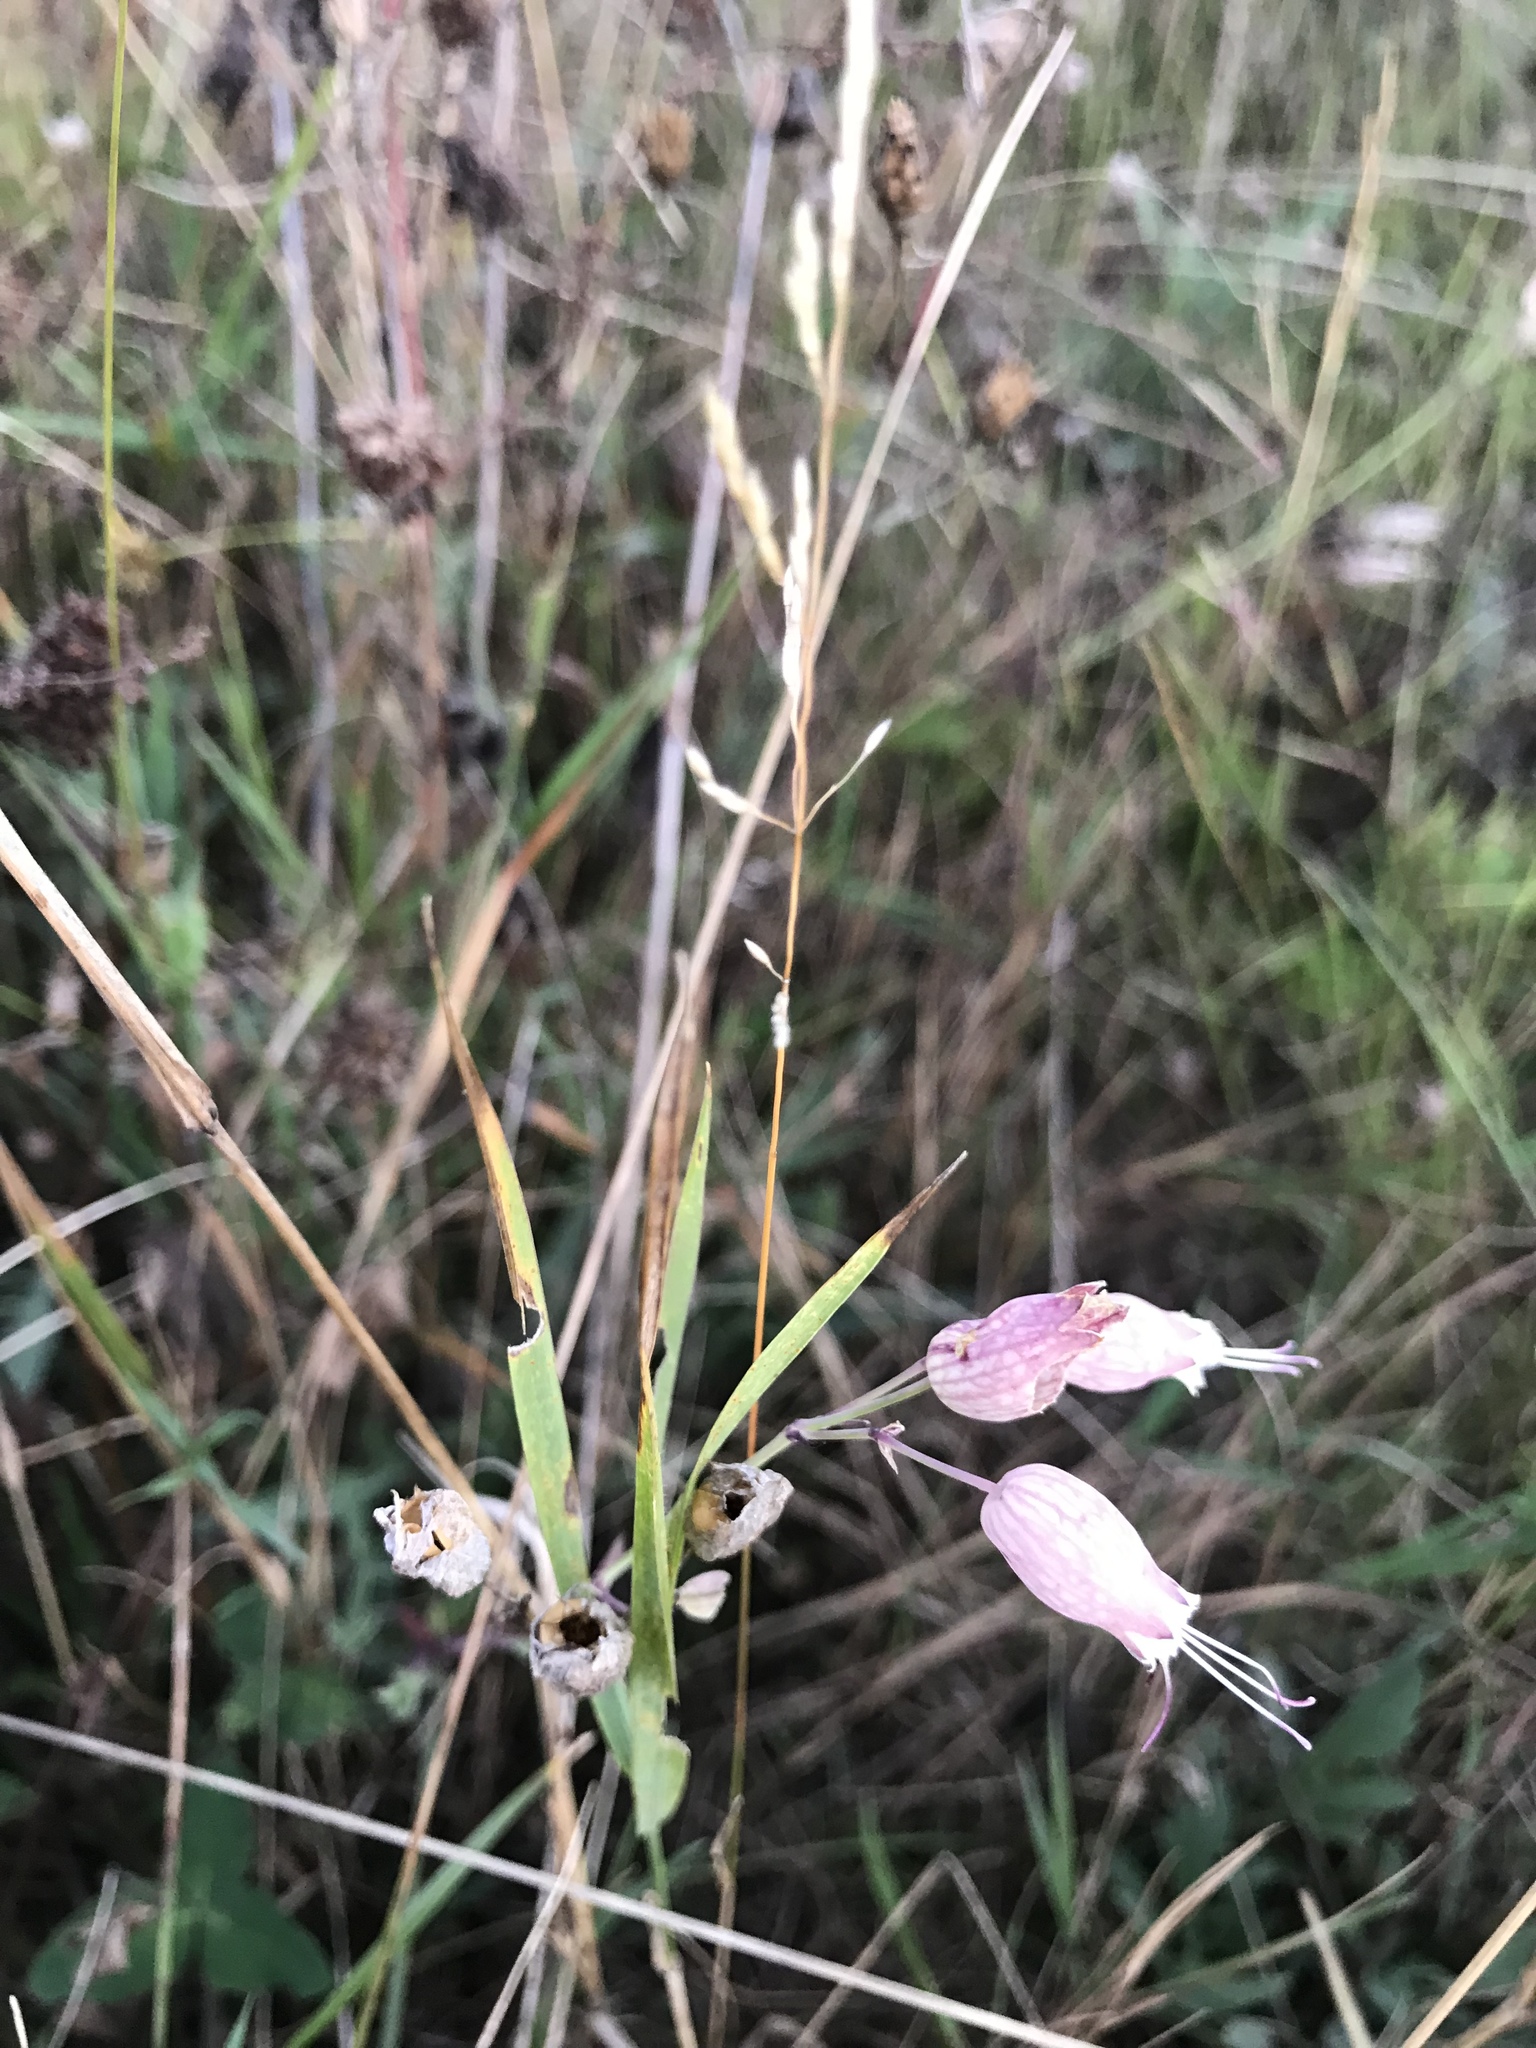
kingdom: Plantae
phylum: Tracheophyta
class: Magnoliopsida
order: Caryophyllales
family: Caryophyllaceae
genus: Silene
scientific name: Silene vulgaris
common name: Bladder campion
